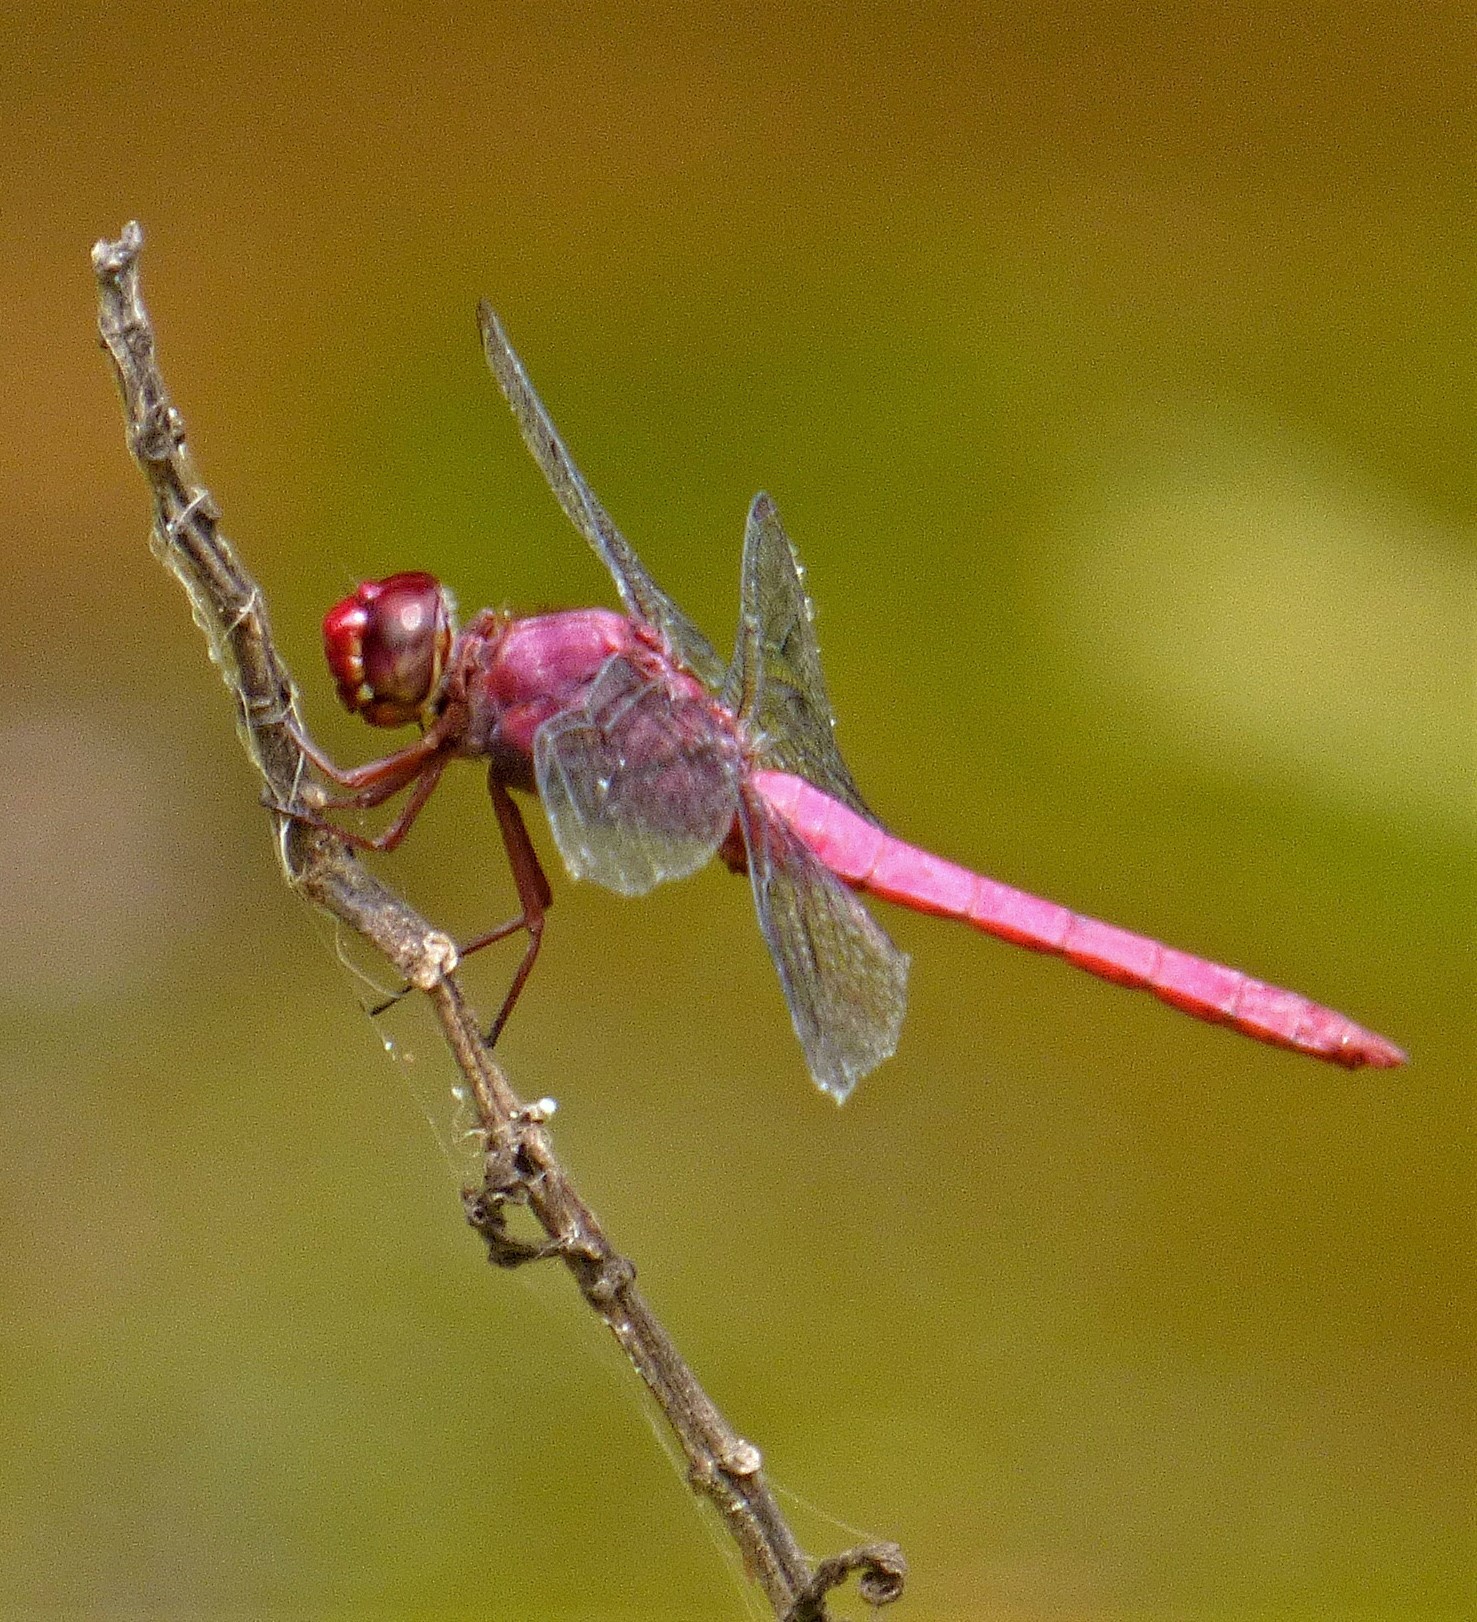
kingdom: Animalia
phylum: Arthropoda
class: Insecta
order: Odonata
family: Libellulidae
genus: Orthemis
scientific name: Orthemis discolor
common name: Carmine skimmer
